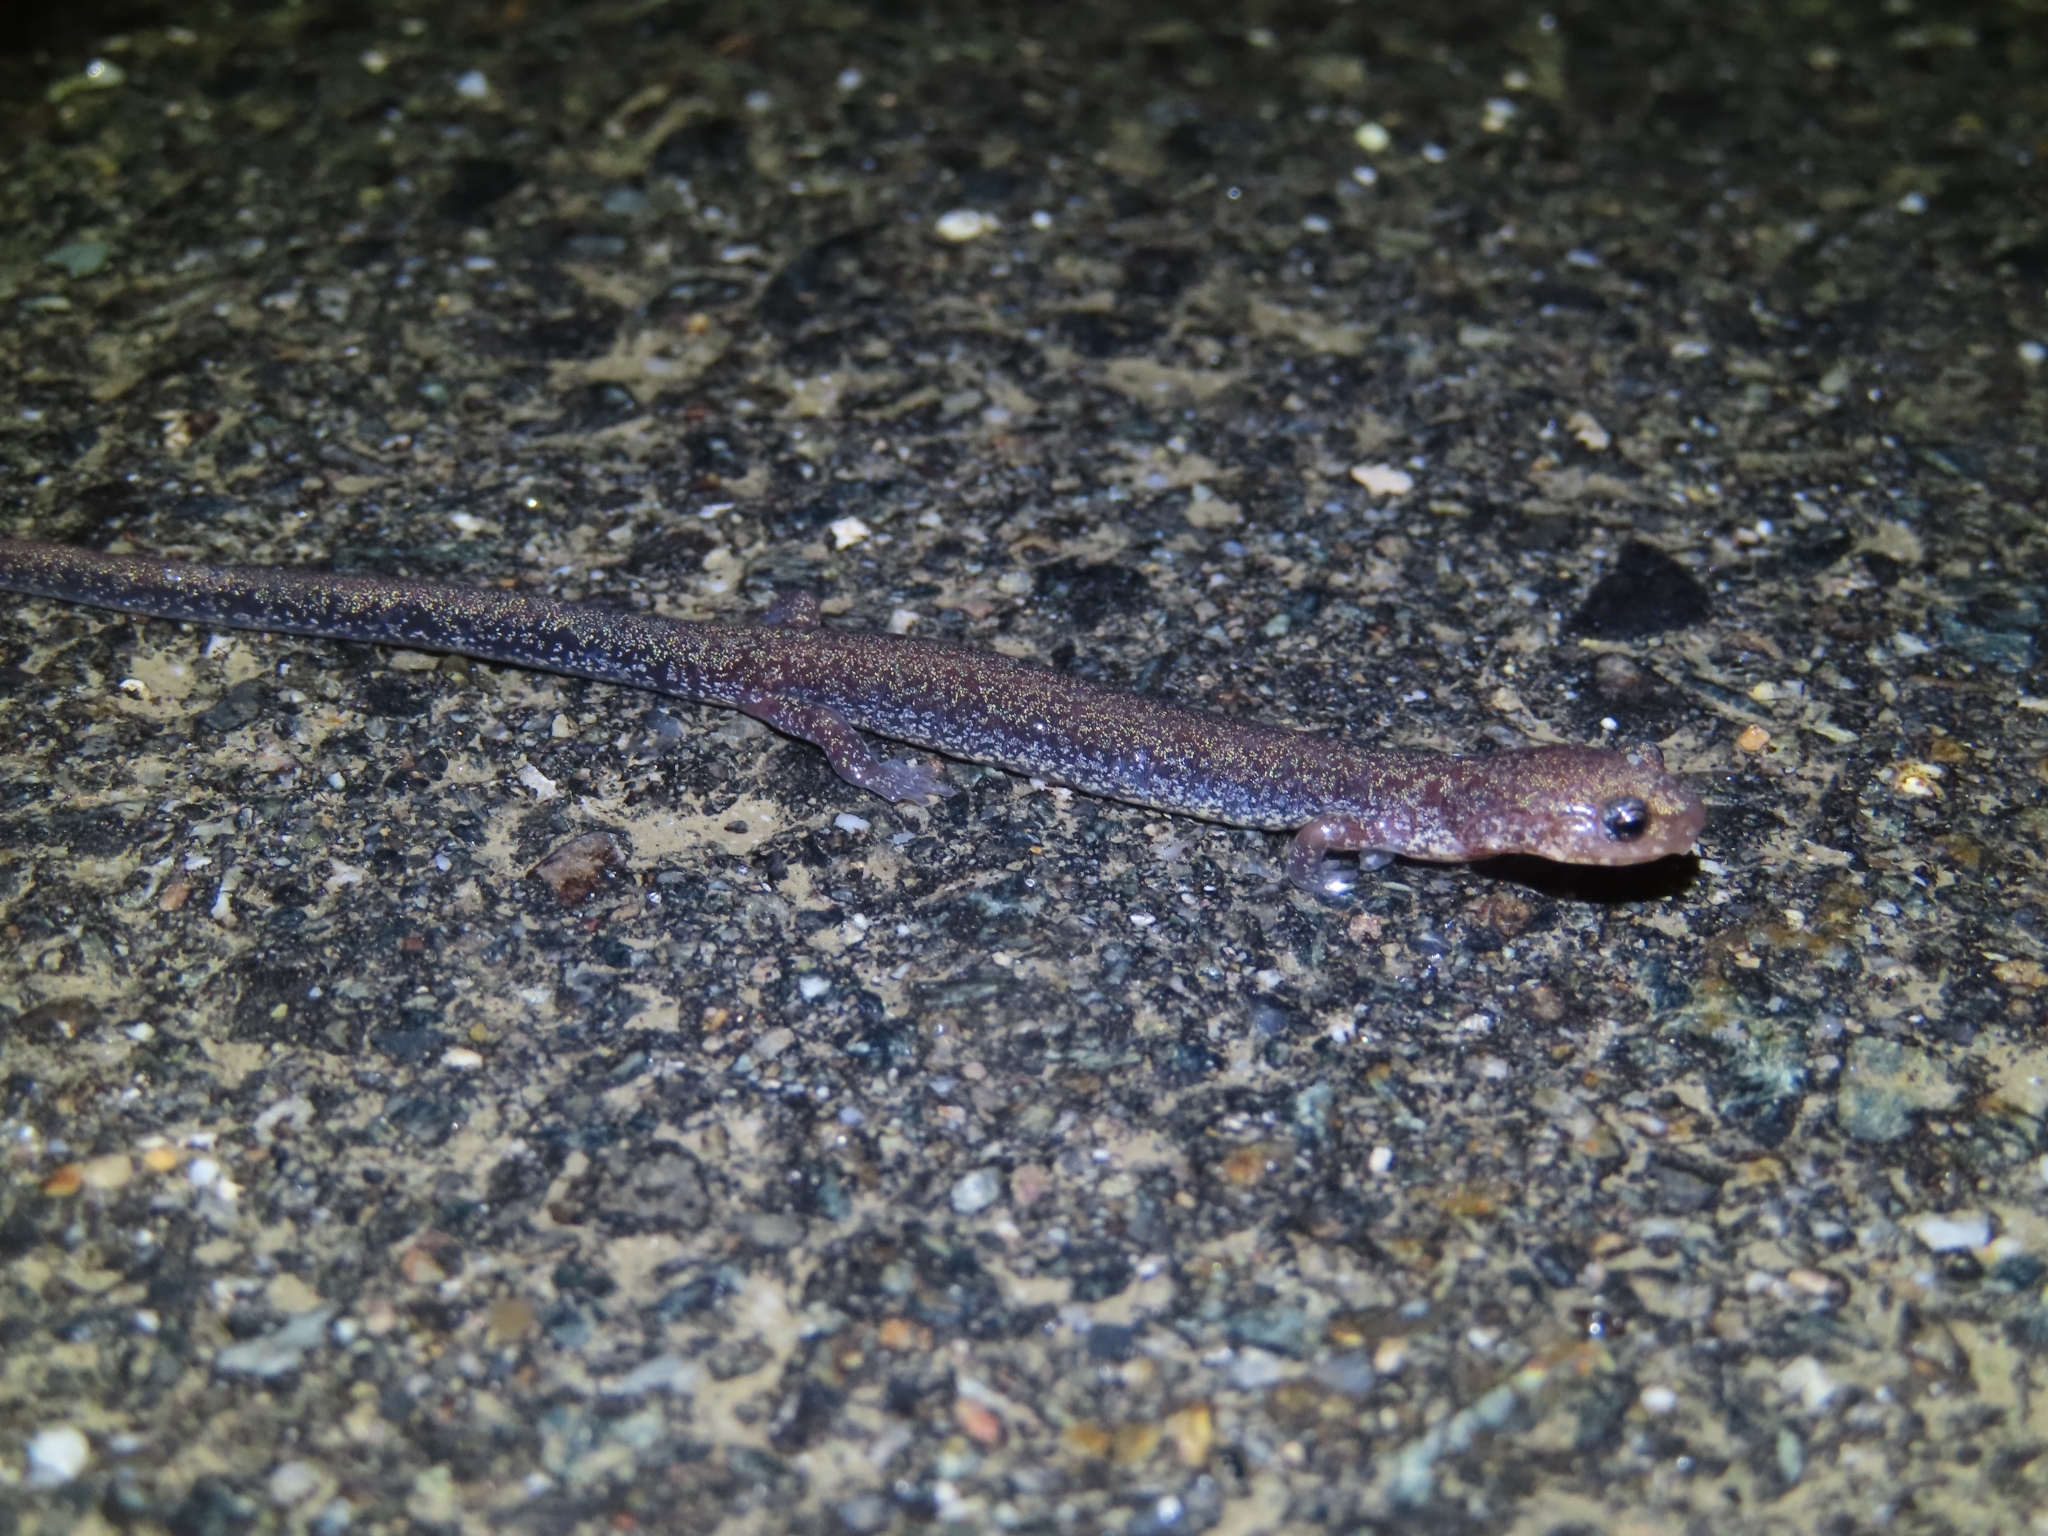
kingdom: Animalia
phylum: Chordata
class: Amphibia
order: Caudata
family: Plethodontidae
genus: Plethodon
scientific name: Plethodon cinereus
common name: Redback salamander
